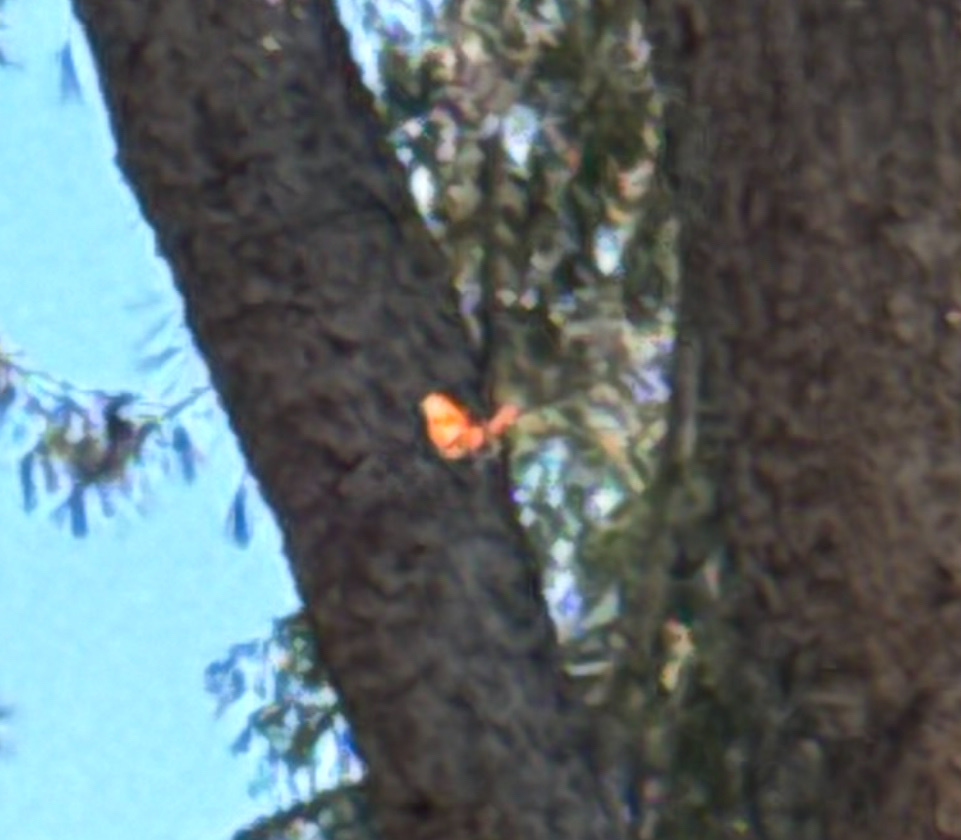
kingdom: Animalia
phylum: Arthropoda
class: Insecta
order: Lepidoptera
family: Nymphalidae
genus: Danaus
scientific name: Danaus gilippus
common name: Queen
